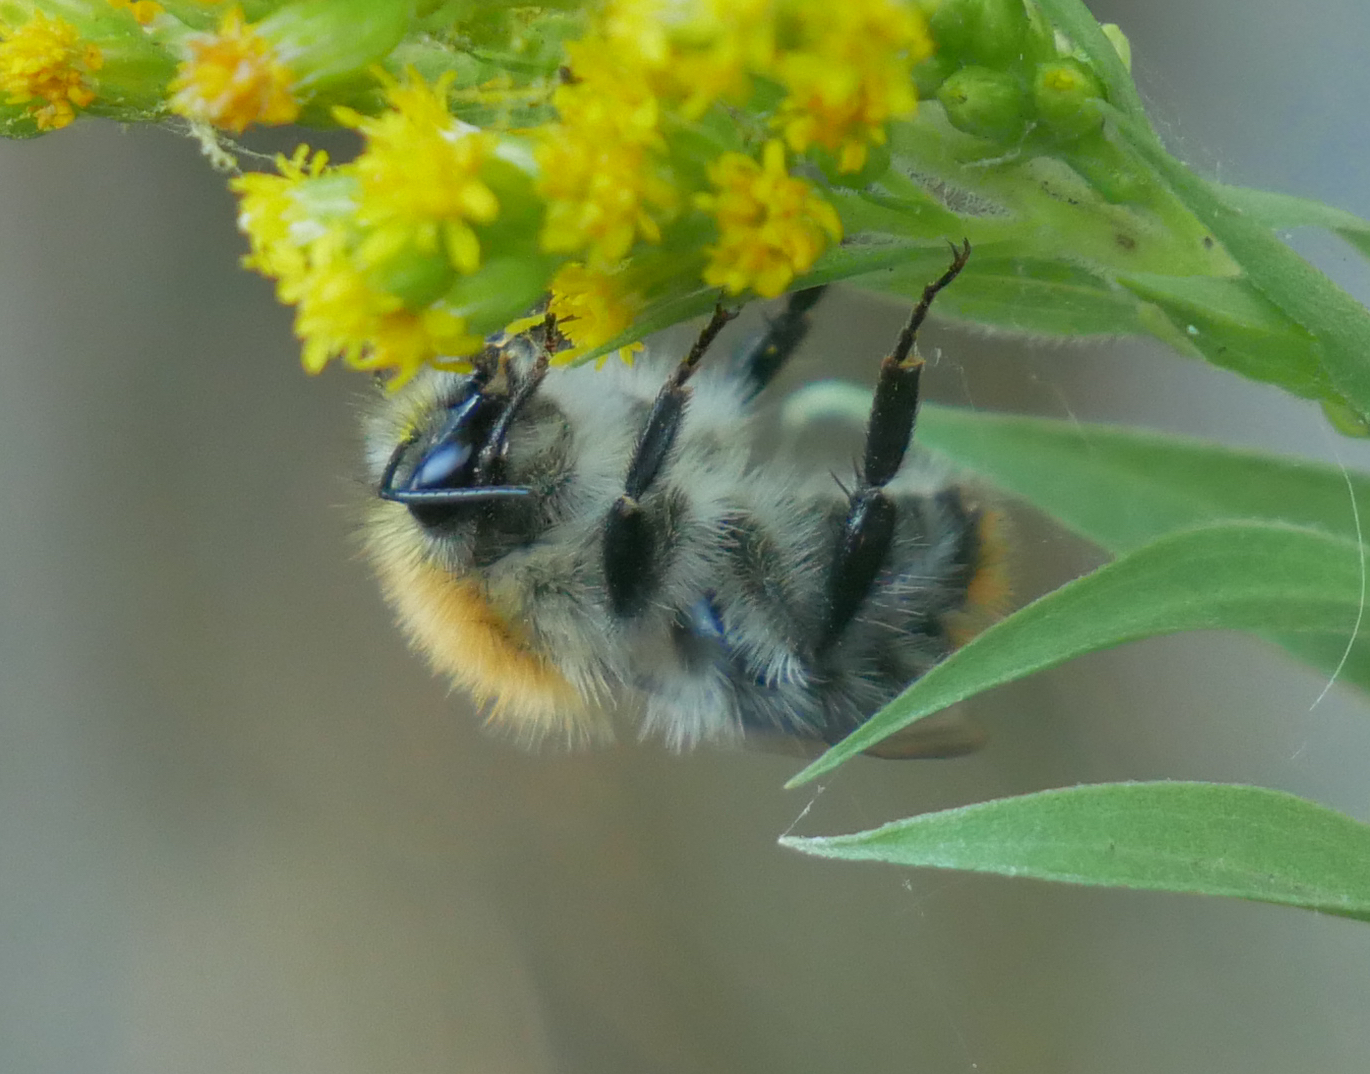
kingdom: Animalia
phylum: Arthropoda
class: Insecta
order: Hymenoptera
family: Apidae
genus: Bombus
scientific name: Bombus pascuorum
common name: Common carder bee
